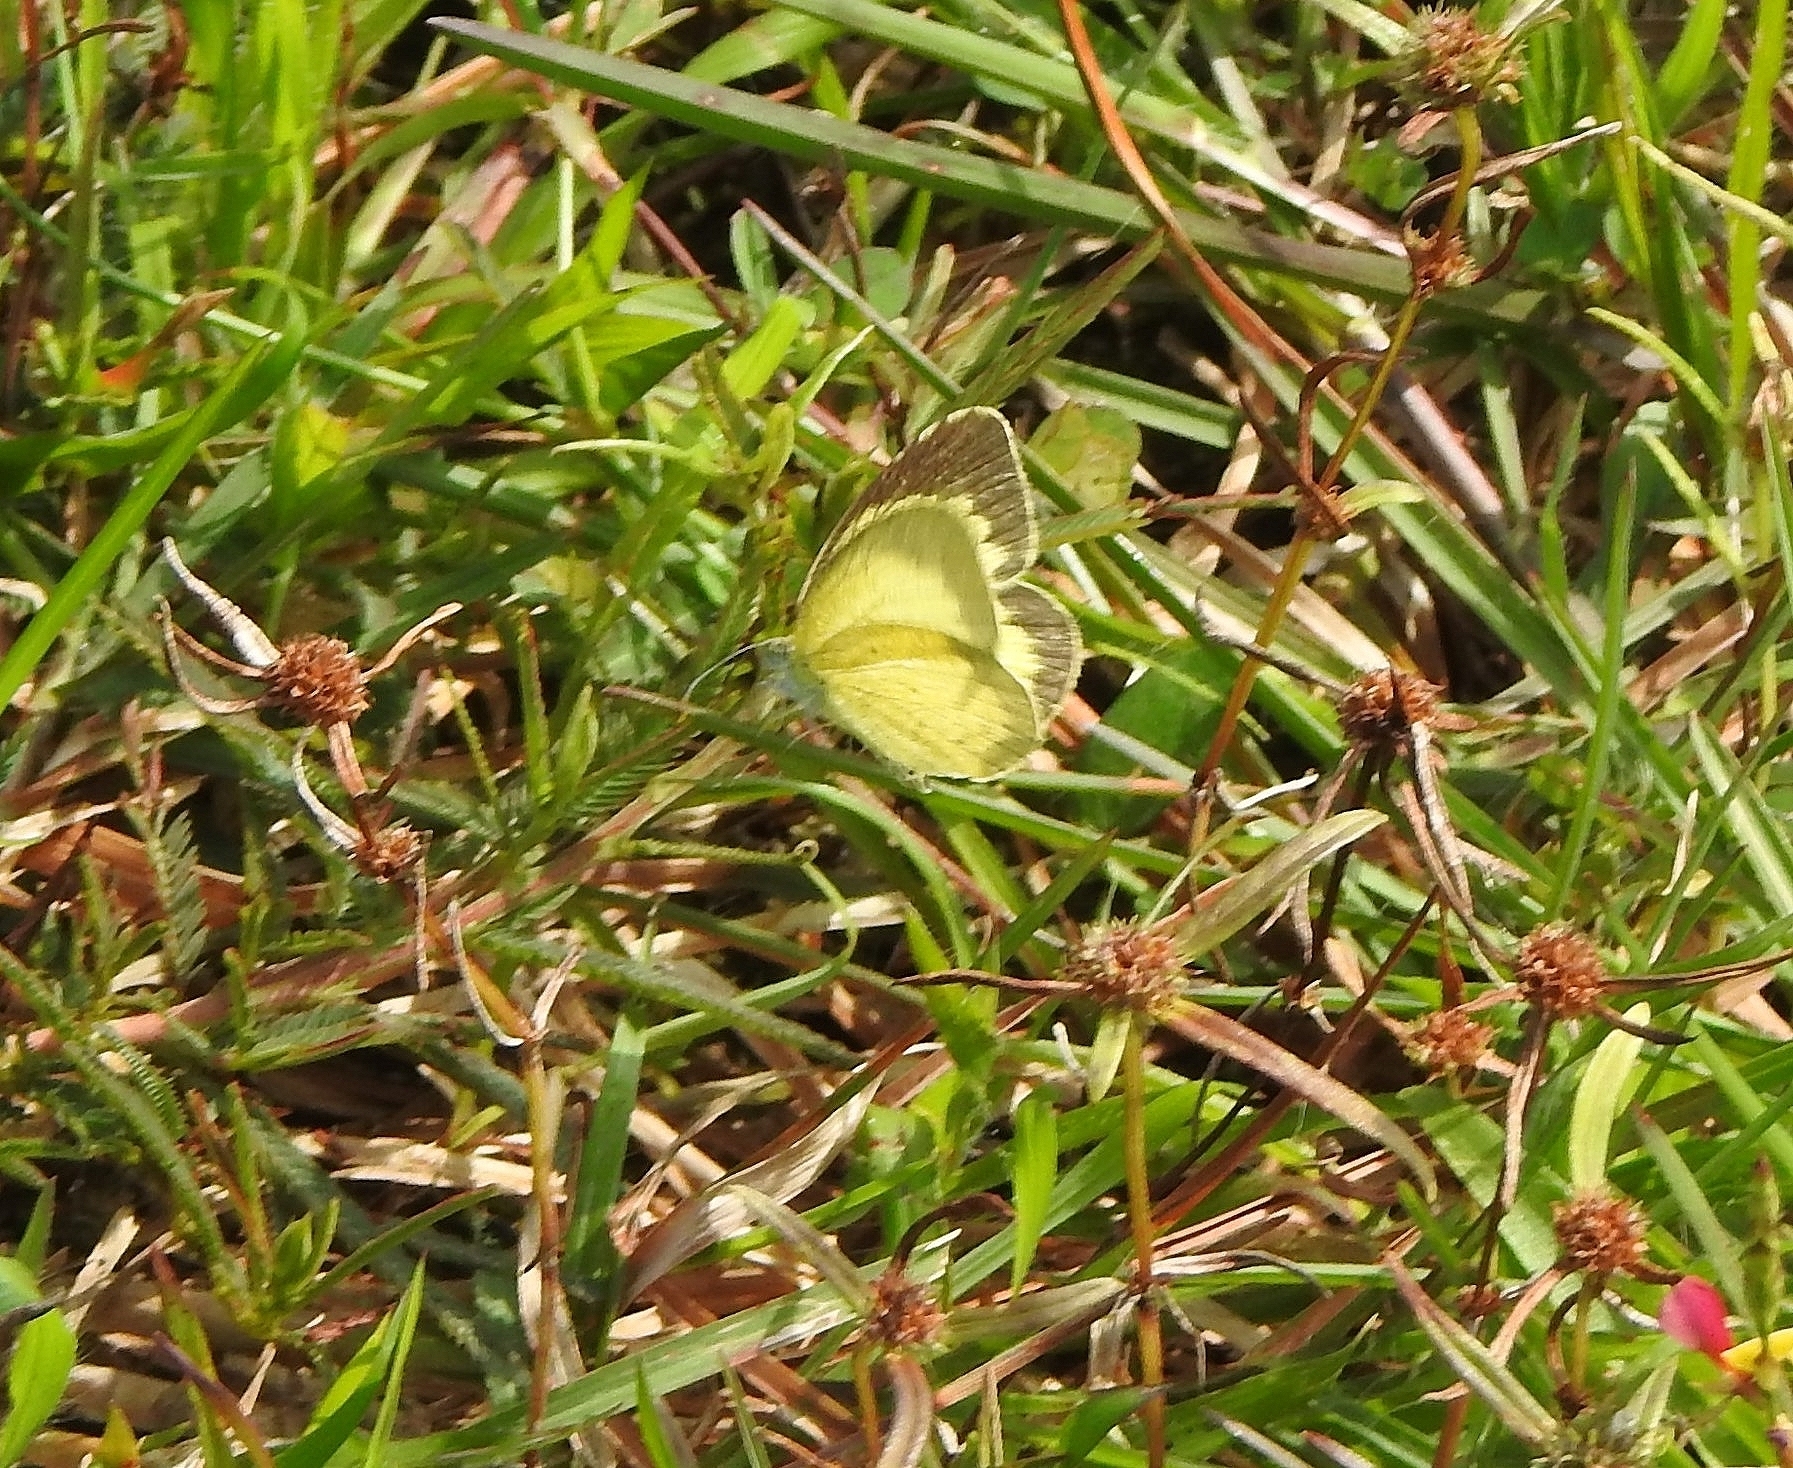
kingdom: Animalia
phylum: Arthropoda
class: Insecta
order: Lepidoptera
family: Pieridae
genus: Eurema
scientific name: Eurema brigitta
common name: Small grass yellow
